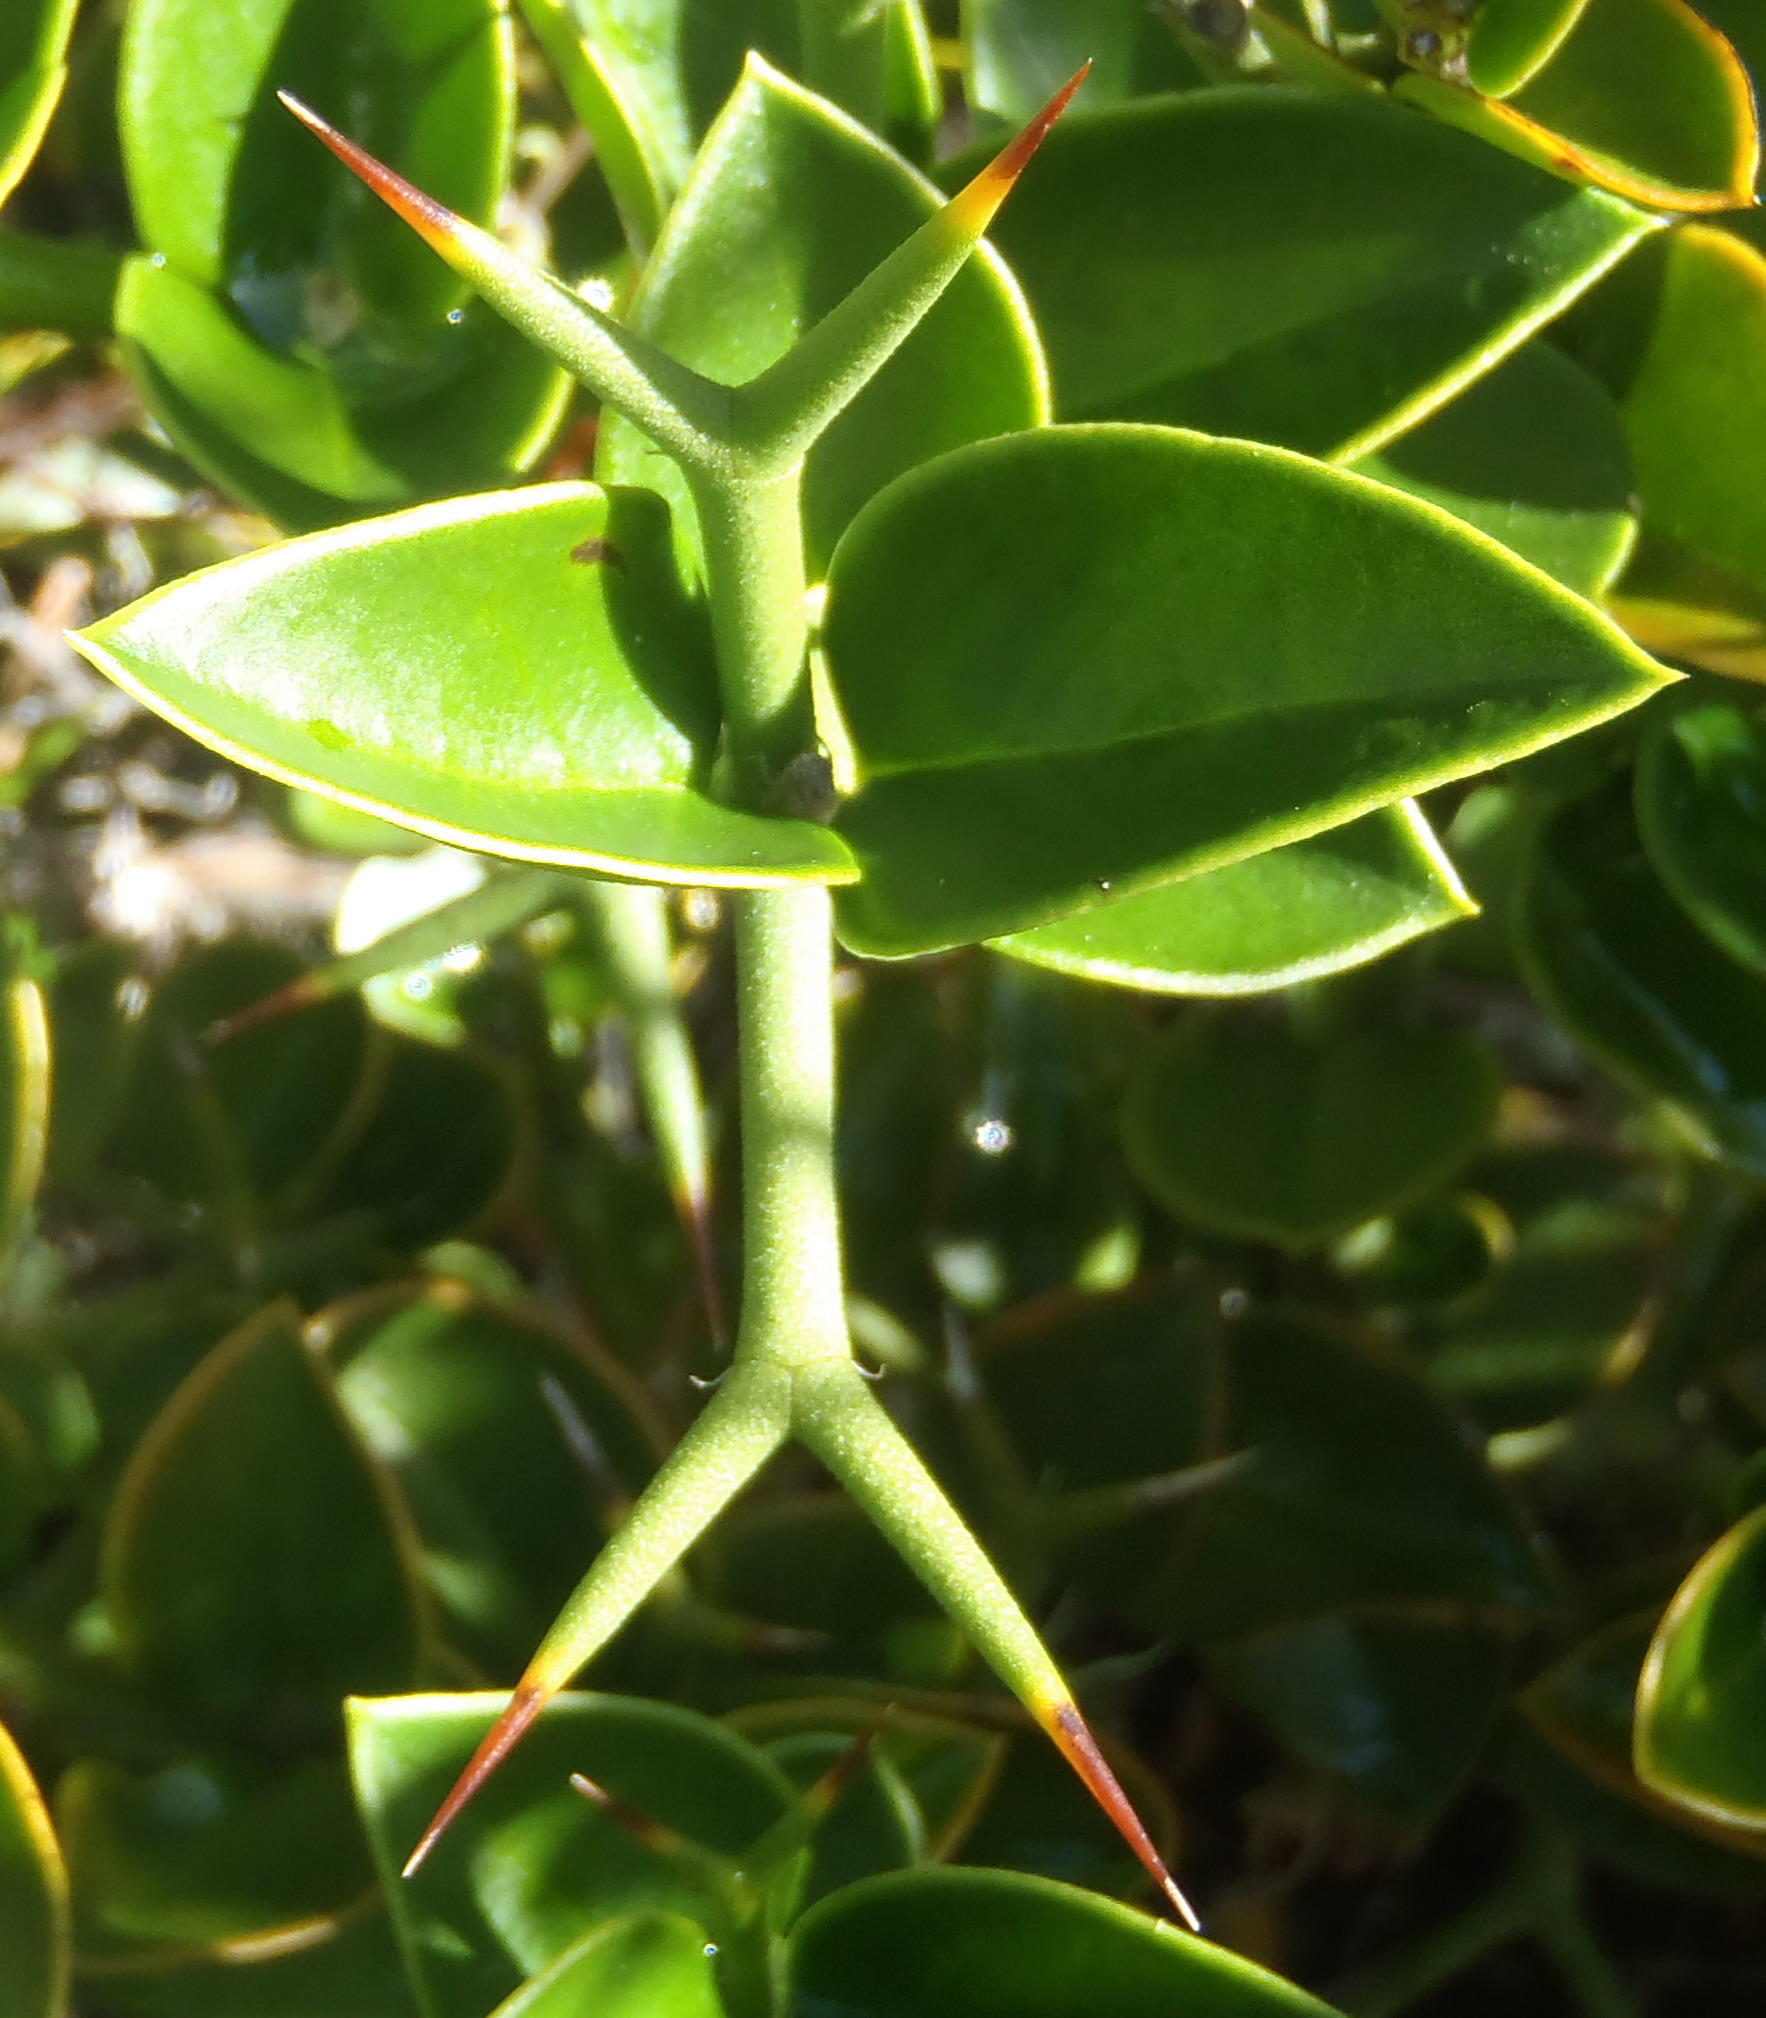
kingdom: Plantae
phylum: Tracheophyta
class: Magnoliopsida
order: Gentianales
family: Apocynaceae
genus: Carissa
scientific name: Carissa bispinosa
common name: Forest num-num
